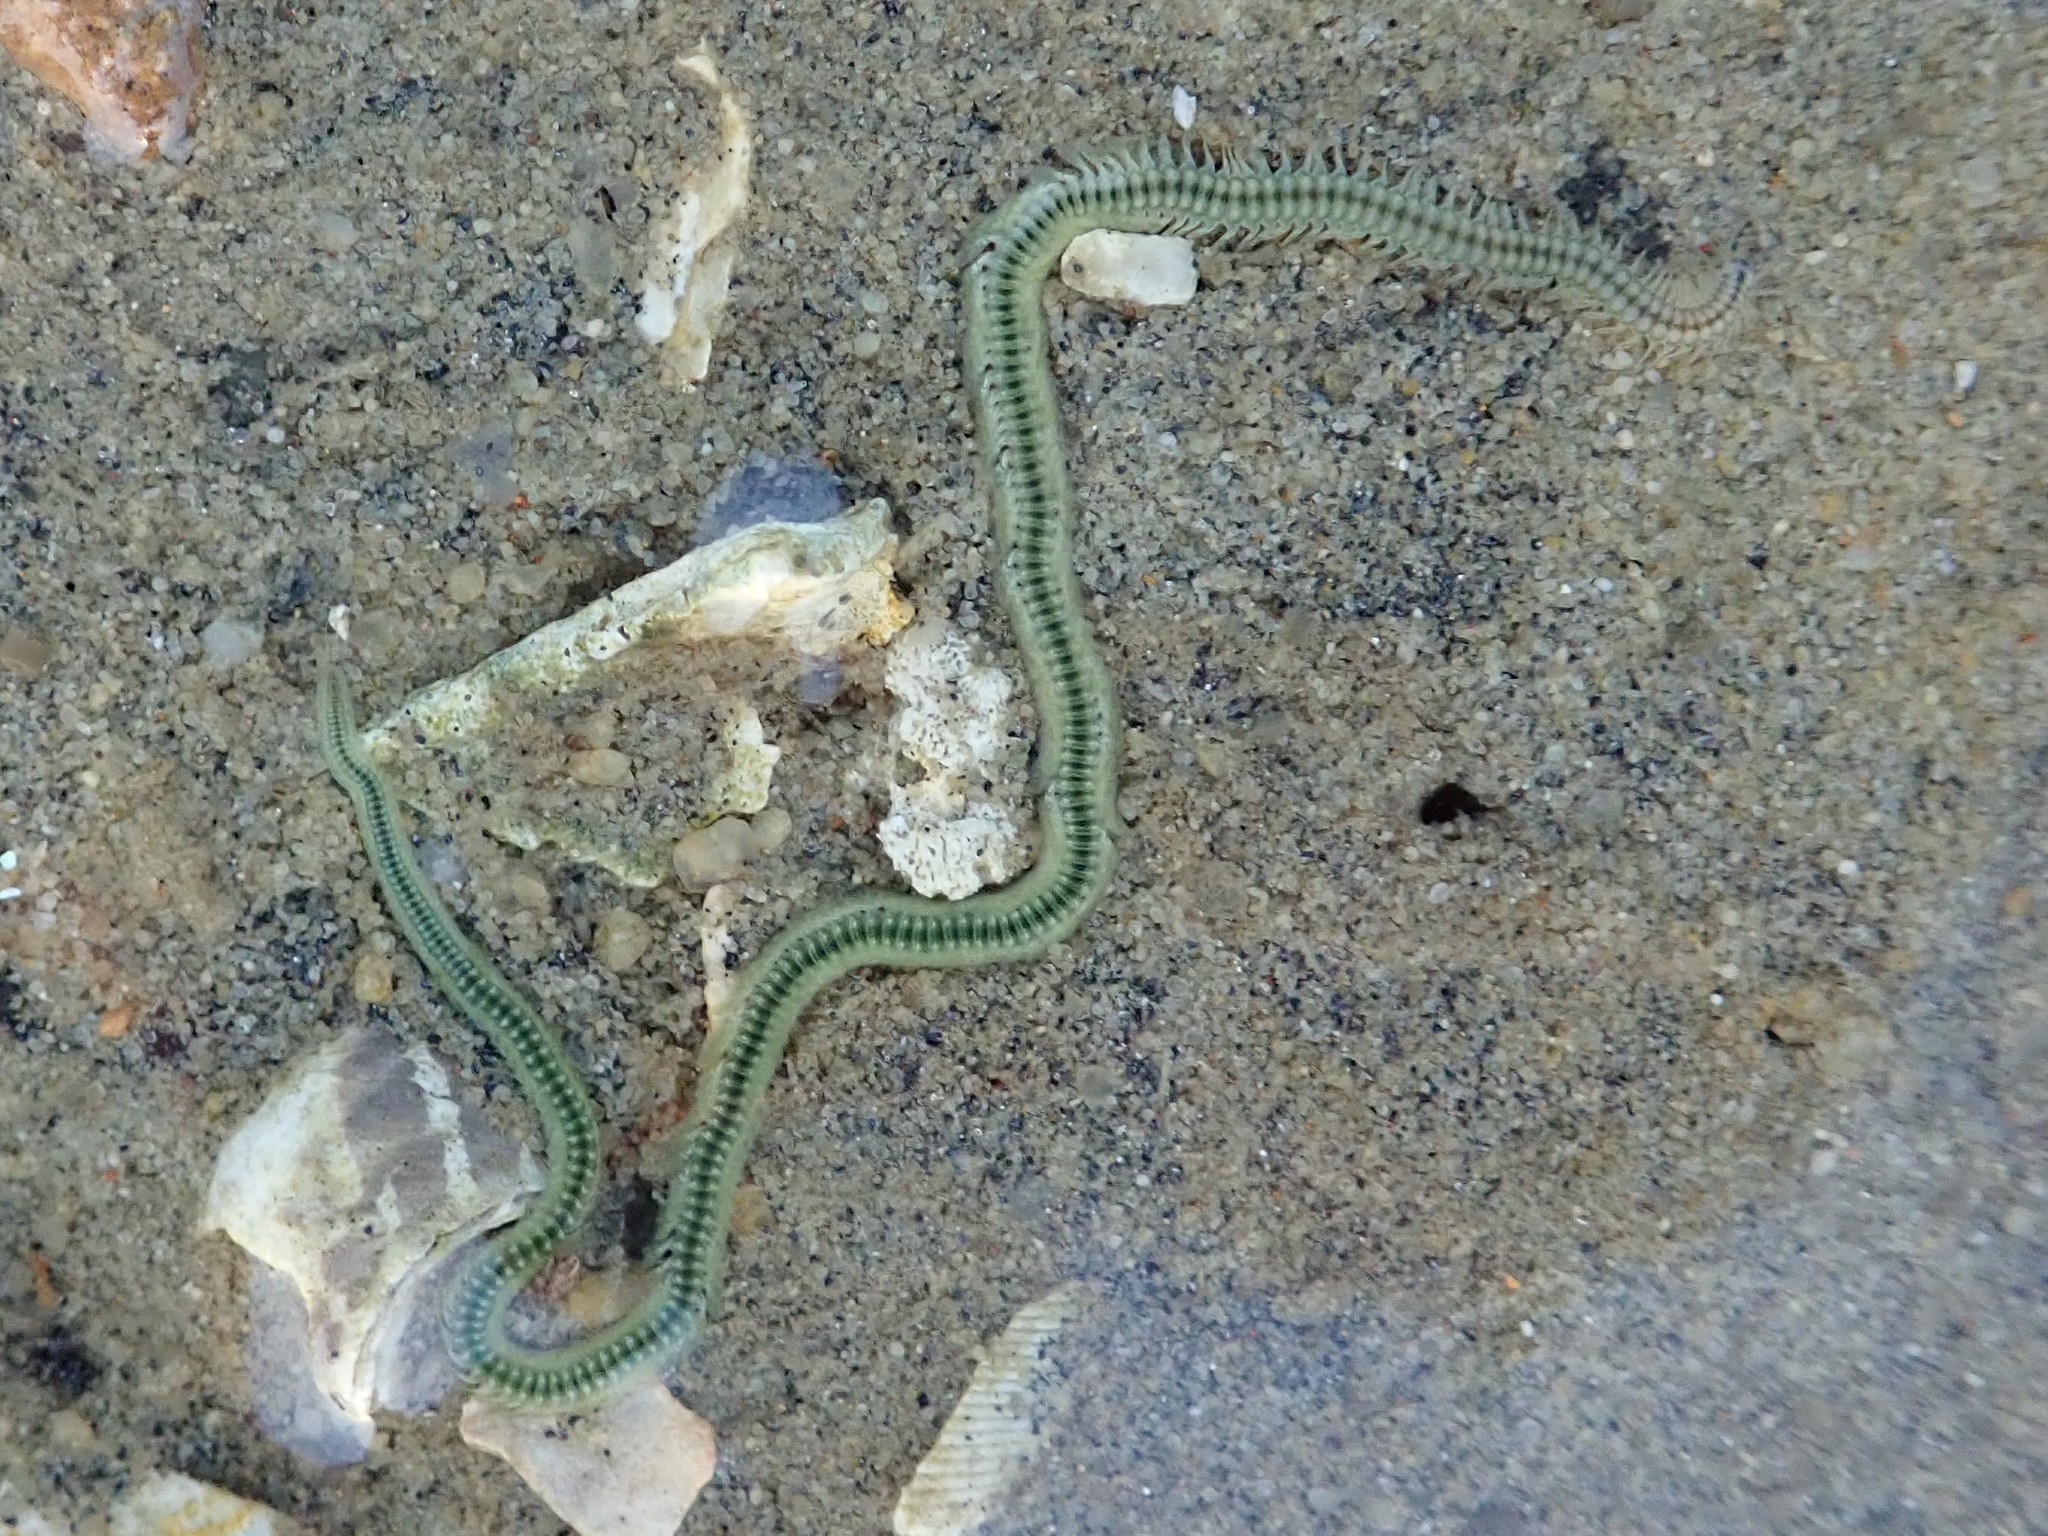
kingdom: Animalia
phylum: Annelida
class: Polychaeta
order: Phyllodocida
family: Phyllodocidae
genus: Phyllodoce
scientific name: Phyllodoce novaehollandiae
